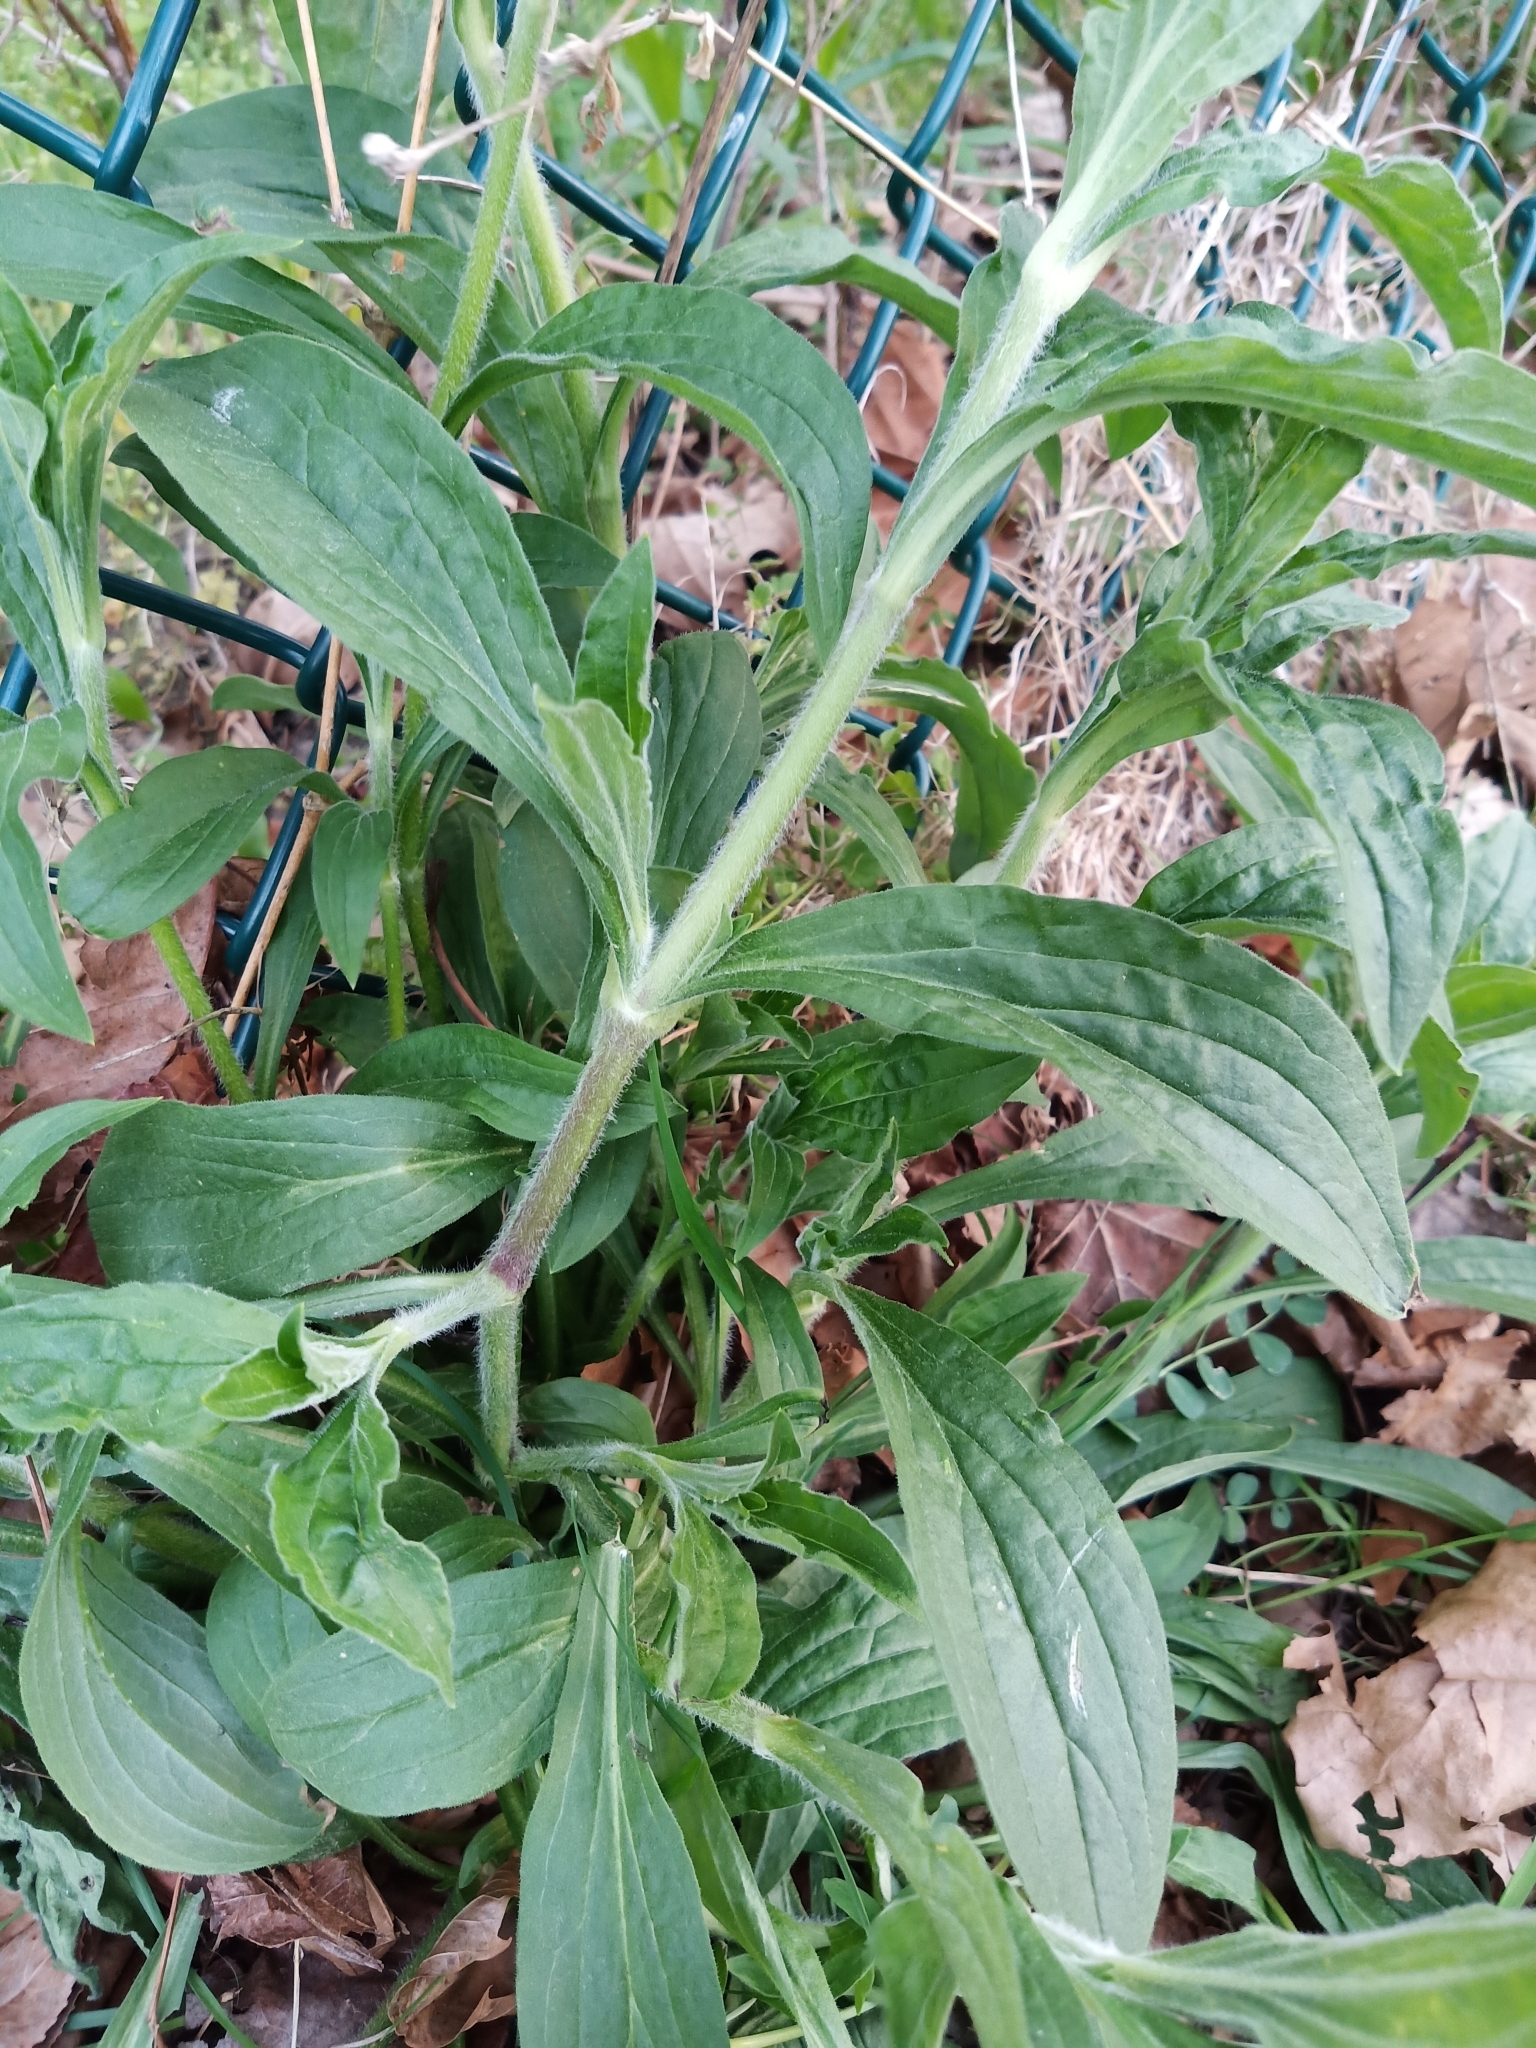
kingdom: Plantae
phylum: Tracheophyta
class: Magnoliopsida
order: Caryophyllales
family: Caryophyllaceae
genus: Silene
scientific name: Silene latifolia
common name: White campion
